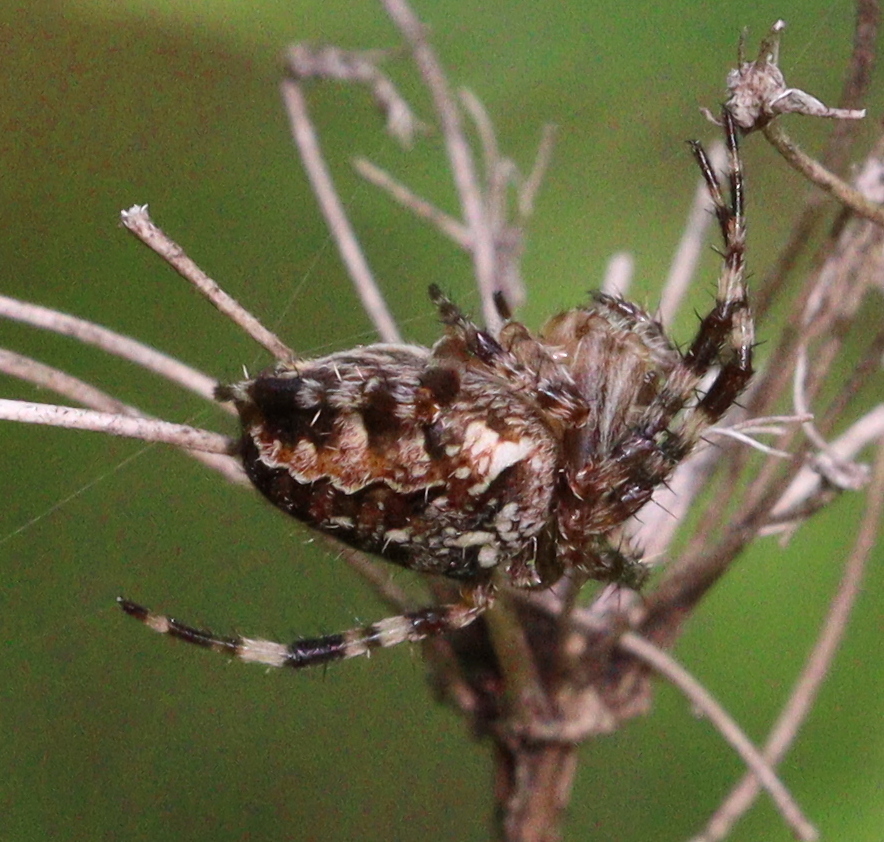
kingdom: Animalia
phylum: Arthropoda
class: Arachnida
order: Araneae
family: Araneidae
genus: Araneus
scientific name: Araneus diadematus
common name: Cross orbweaver
